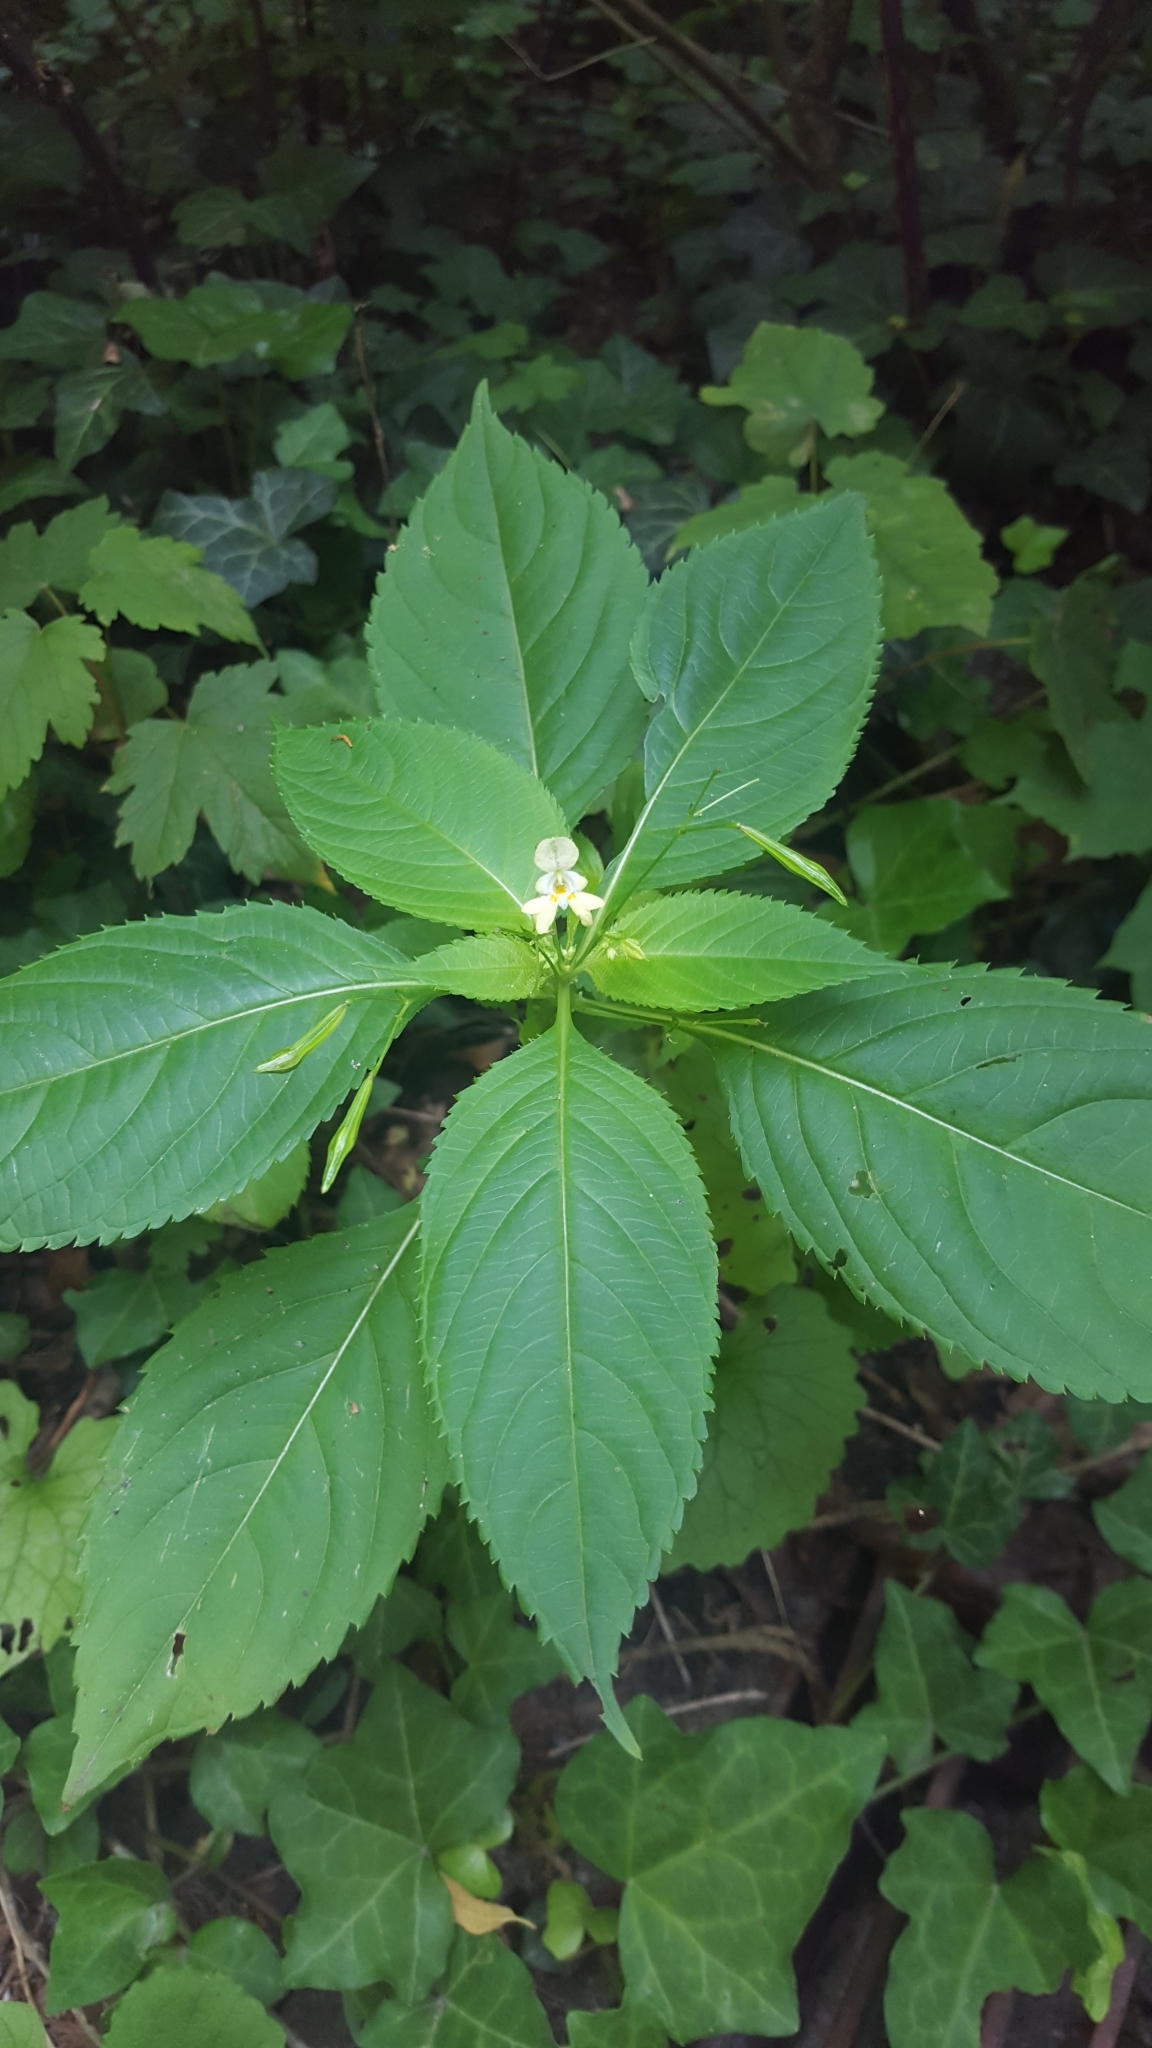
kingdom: Plantae
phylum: Tracheophyta
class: Magnoliopsida
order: Ericales
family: Balsaminaceae
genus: Impatiens
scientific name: Impatiens parviflora
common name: Small balsam
